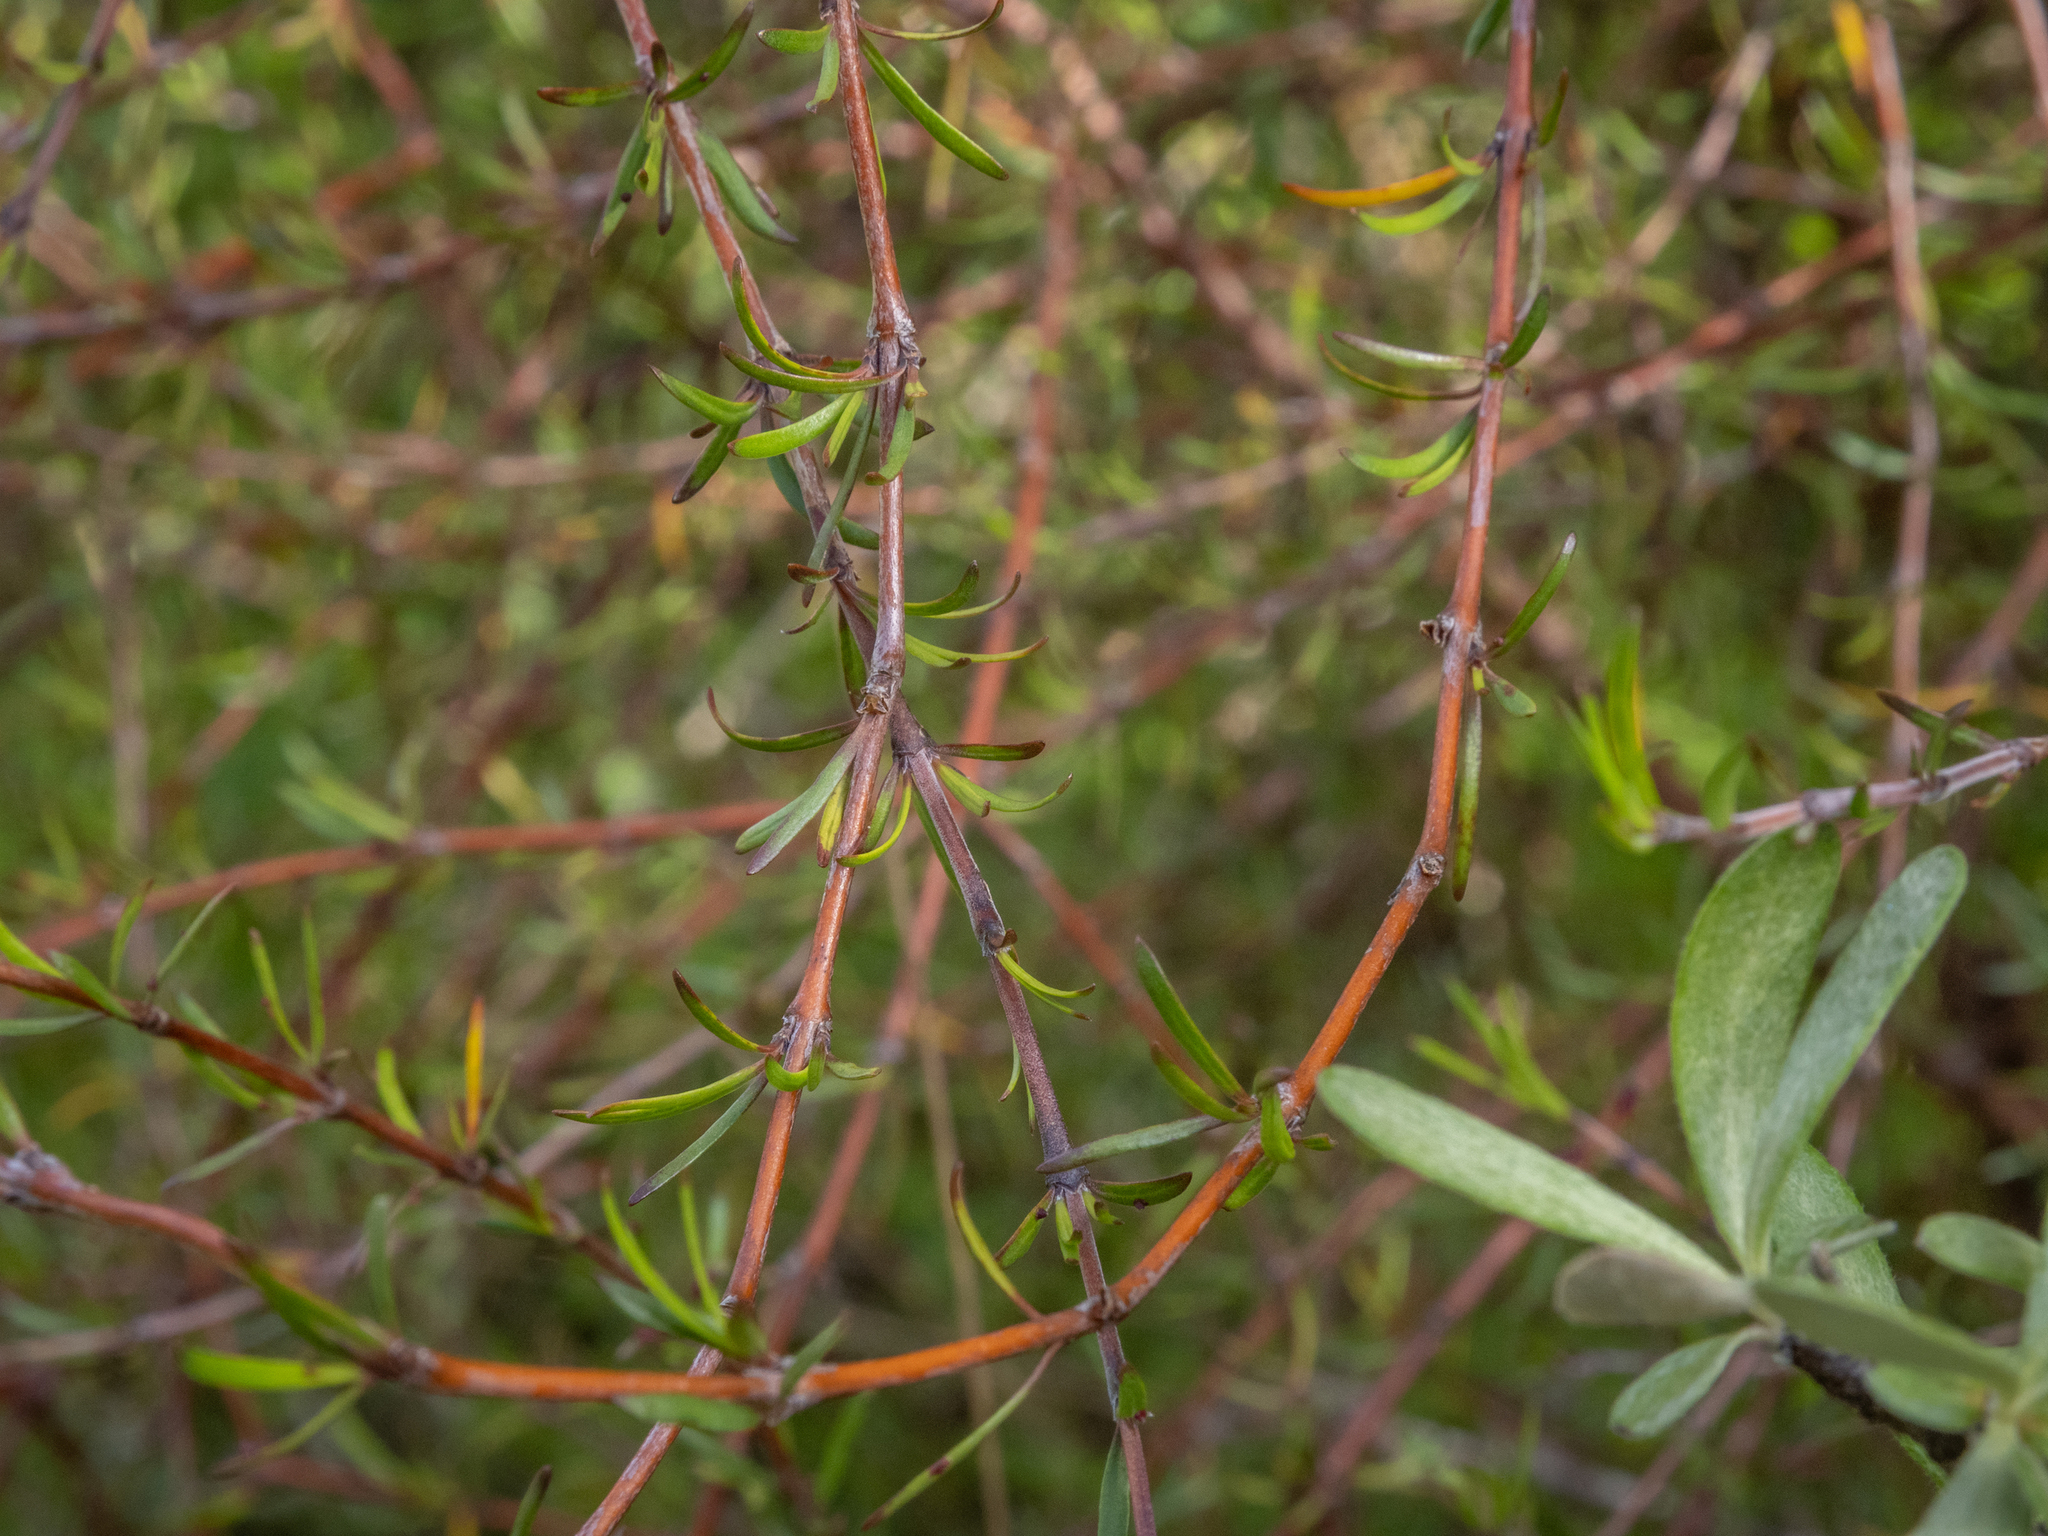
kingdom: Plantae
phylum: Tracheophyta
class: Magnoliopsida
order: Gentianales
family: Rubiaceae
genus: Coprosma
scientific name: Coprosma intertexta
